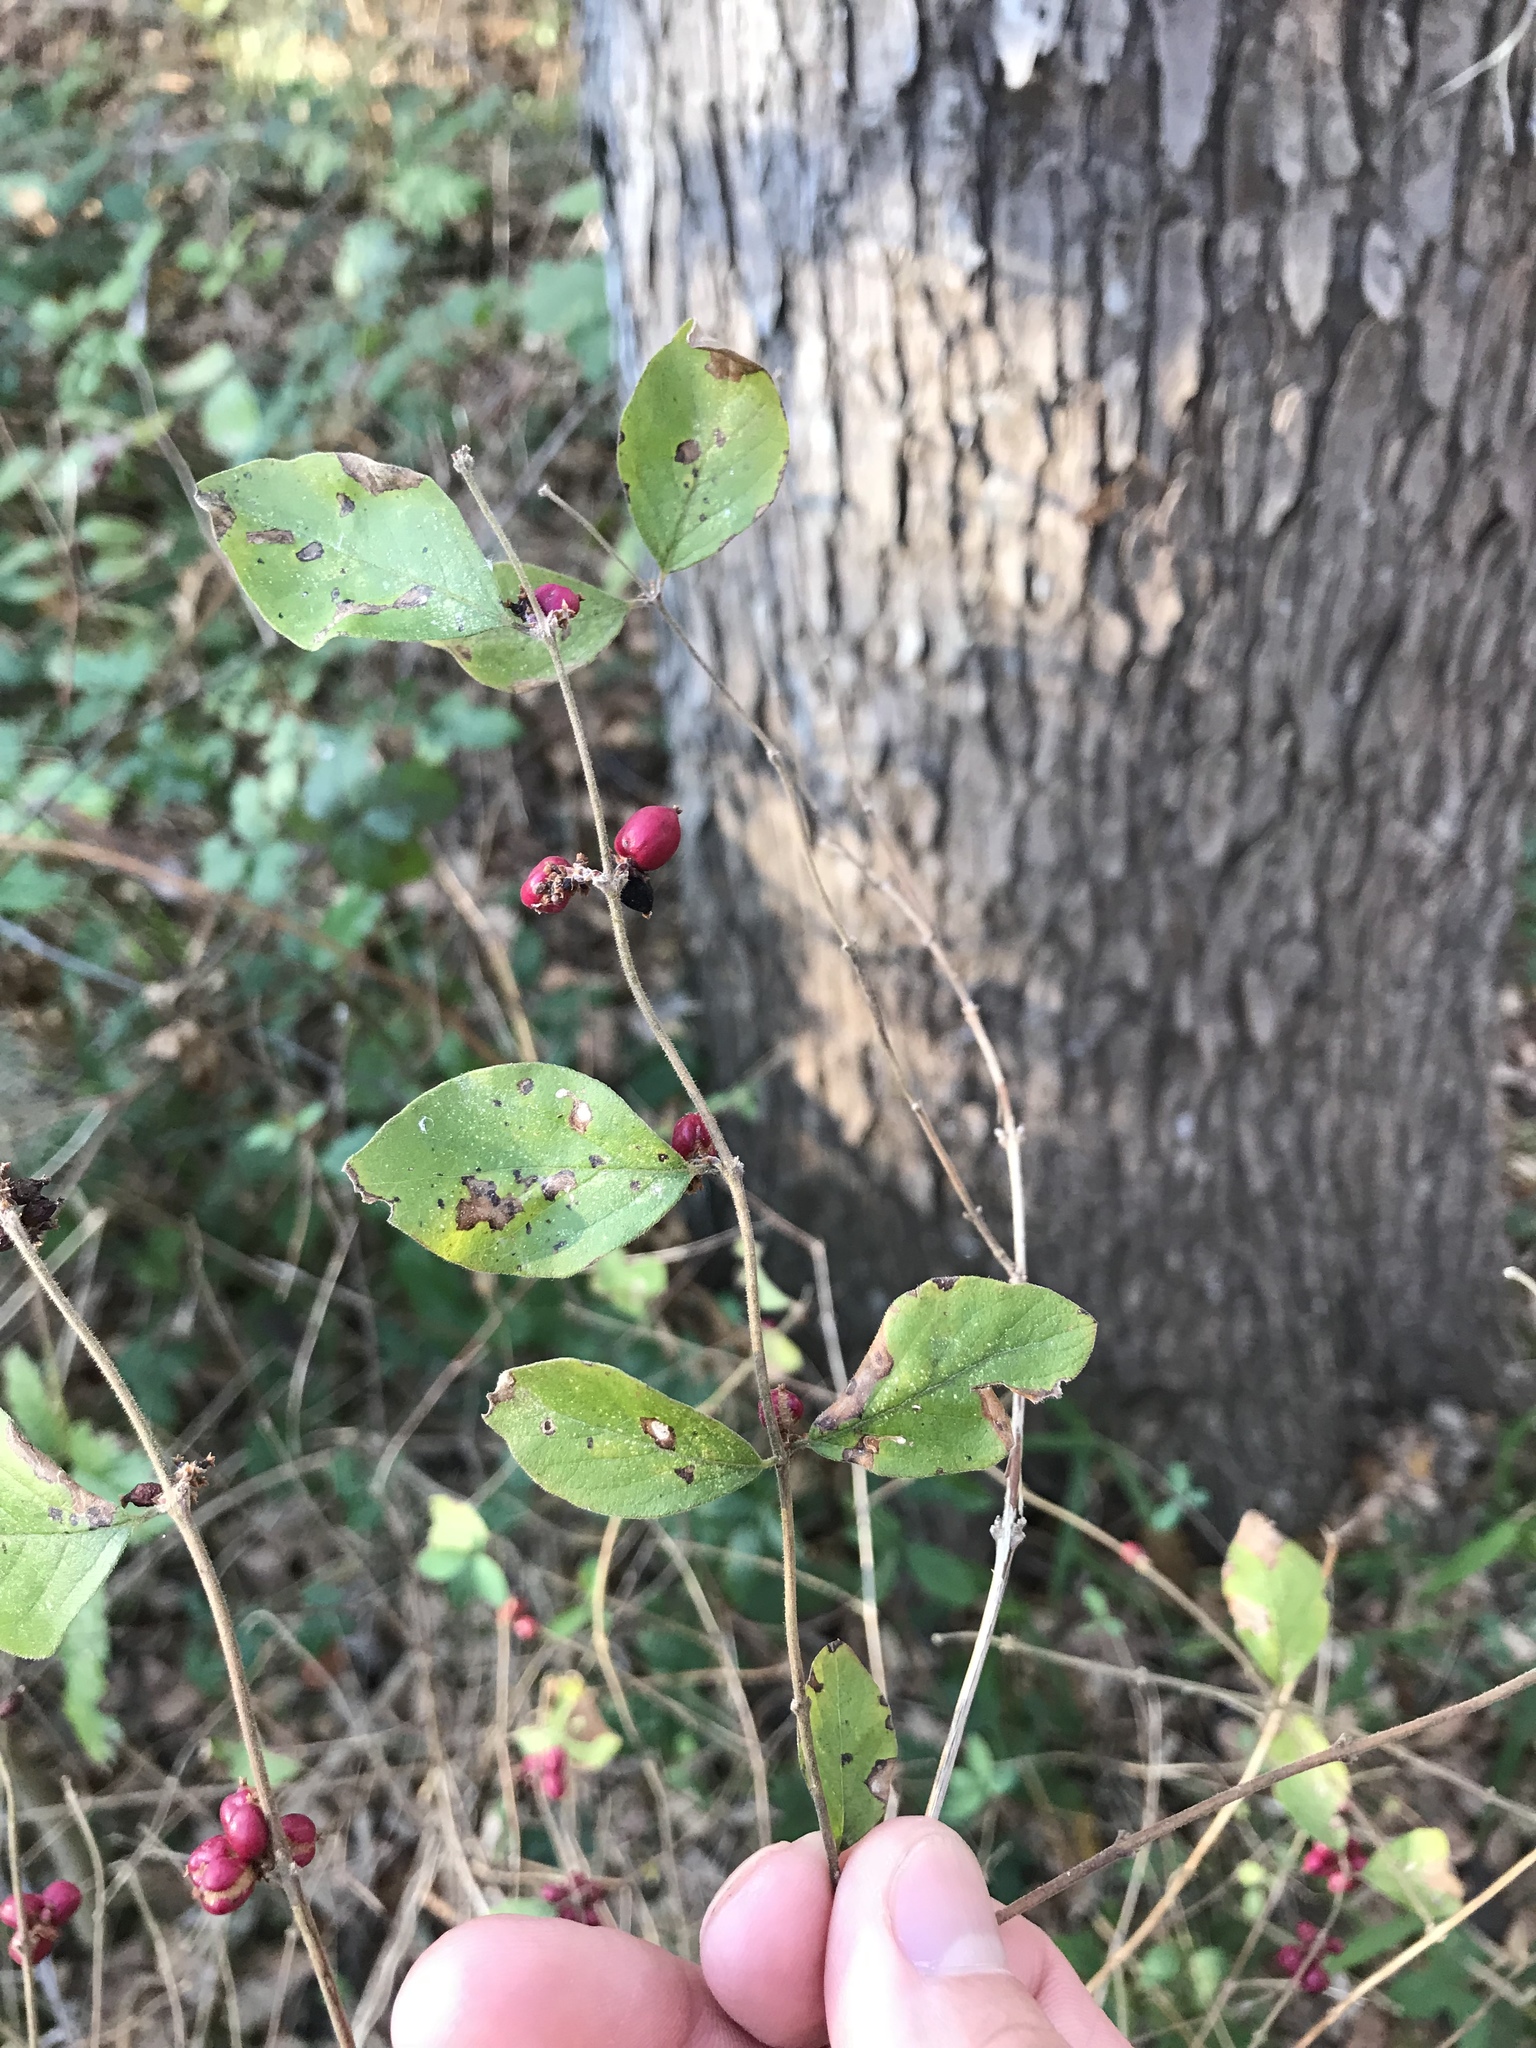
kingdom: Plantae
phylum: Tracheophyta
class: Magnoliopsida
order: Dipsacales
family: Caprifoliaceae
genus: Symphoricarpos
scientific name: Symphoricarpos orbiculatus
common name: Coralberry
